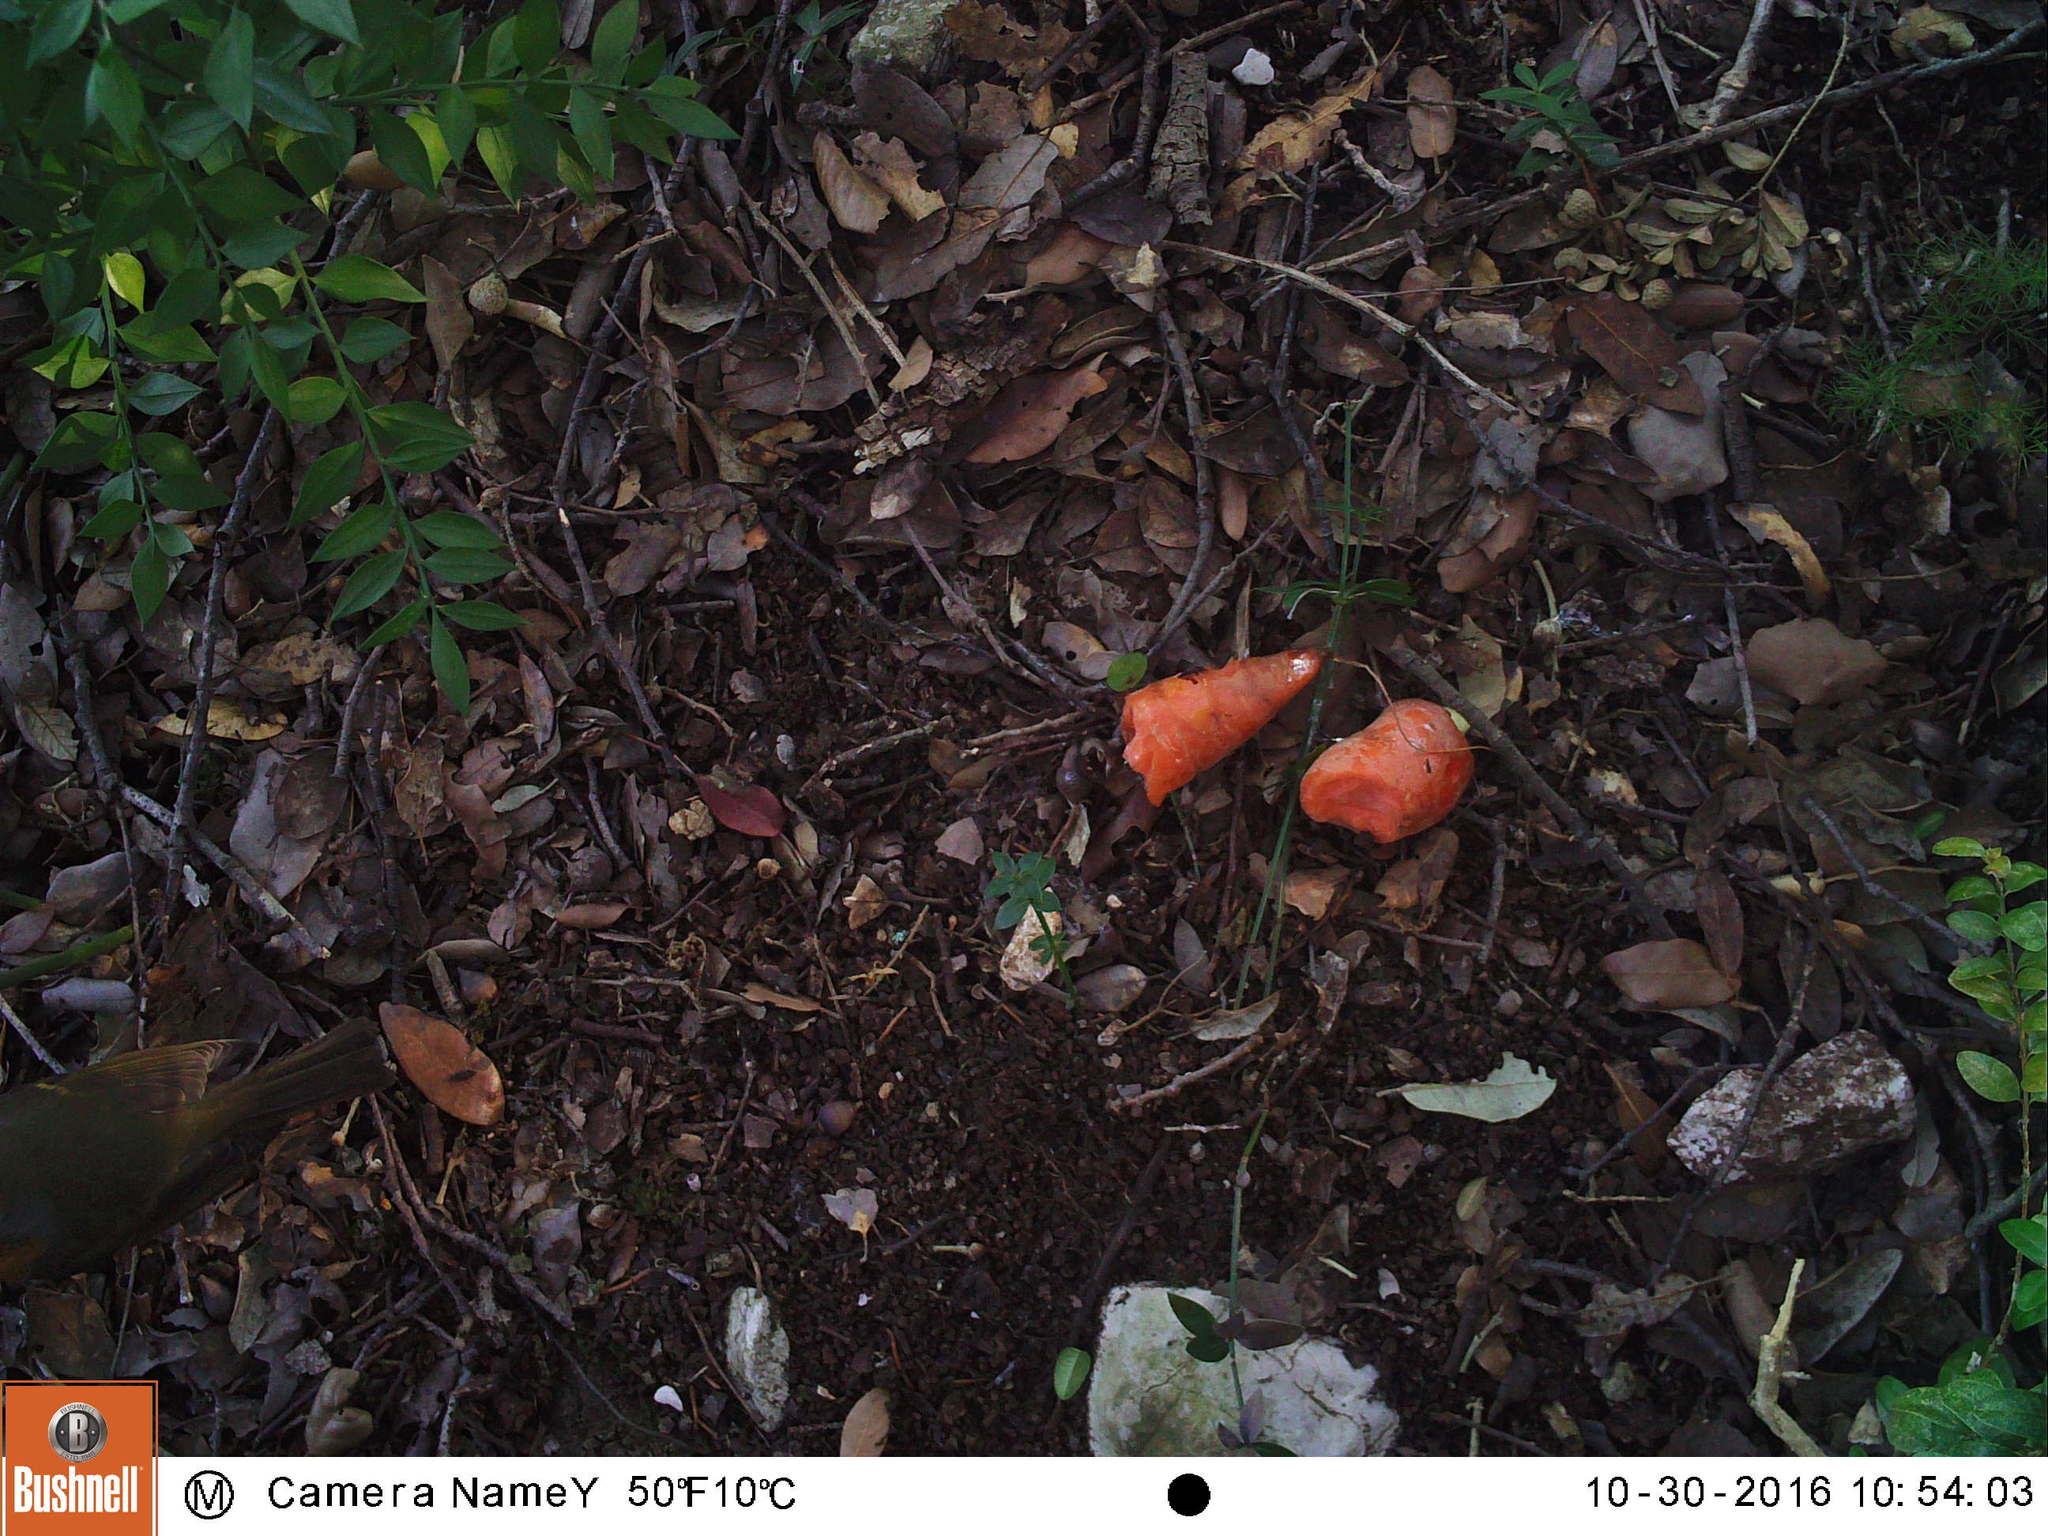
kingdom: Animalia
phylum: Chordata
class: Aves
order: Passeriformes
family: Muscicapidae
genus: Erithacus
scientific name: Erithacus rubecula
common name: European robin
